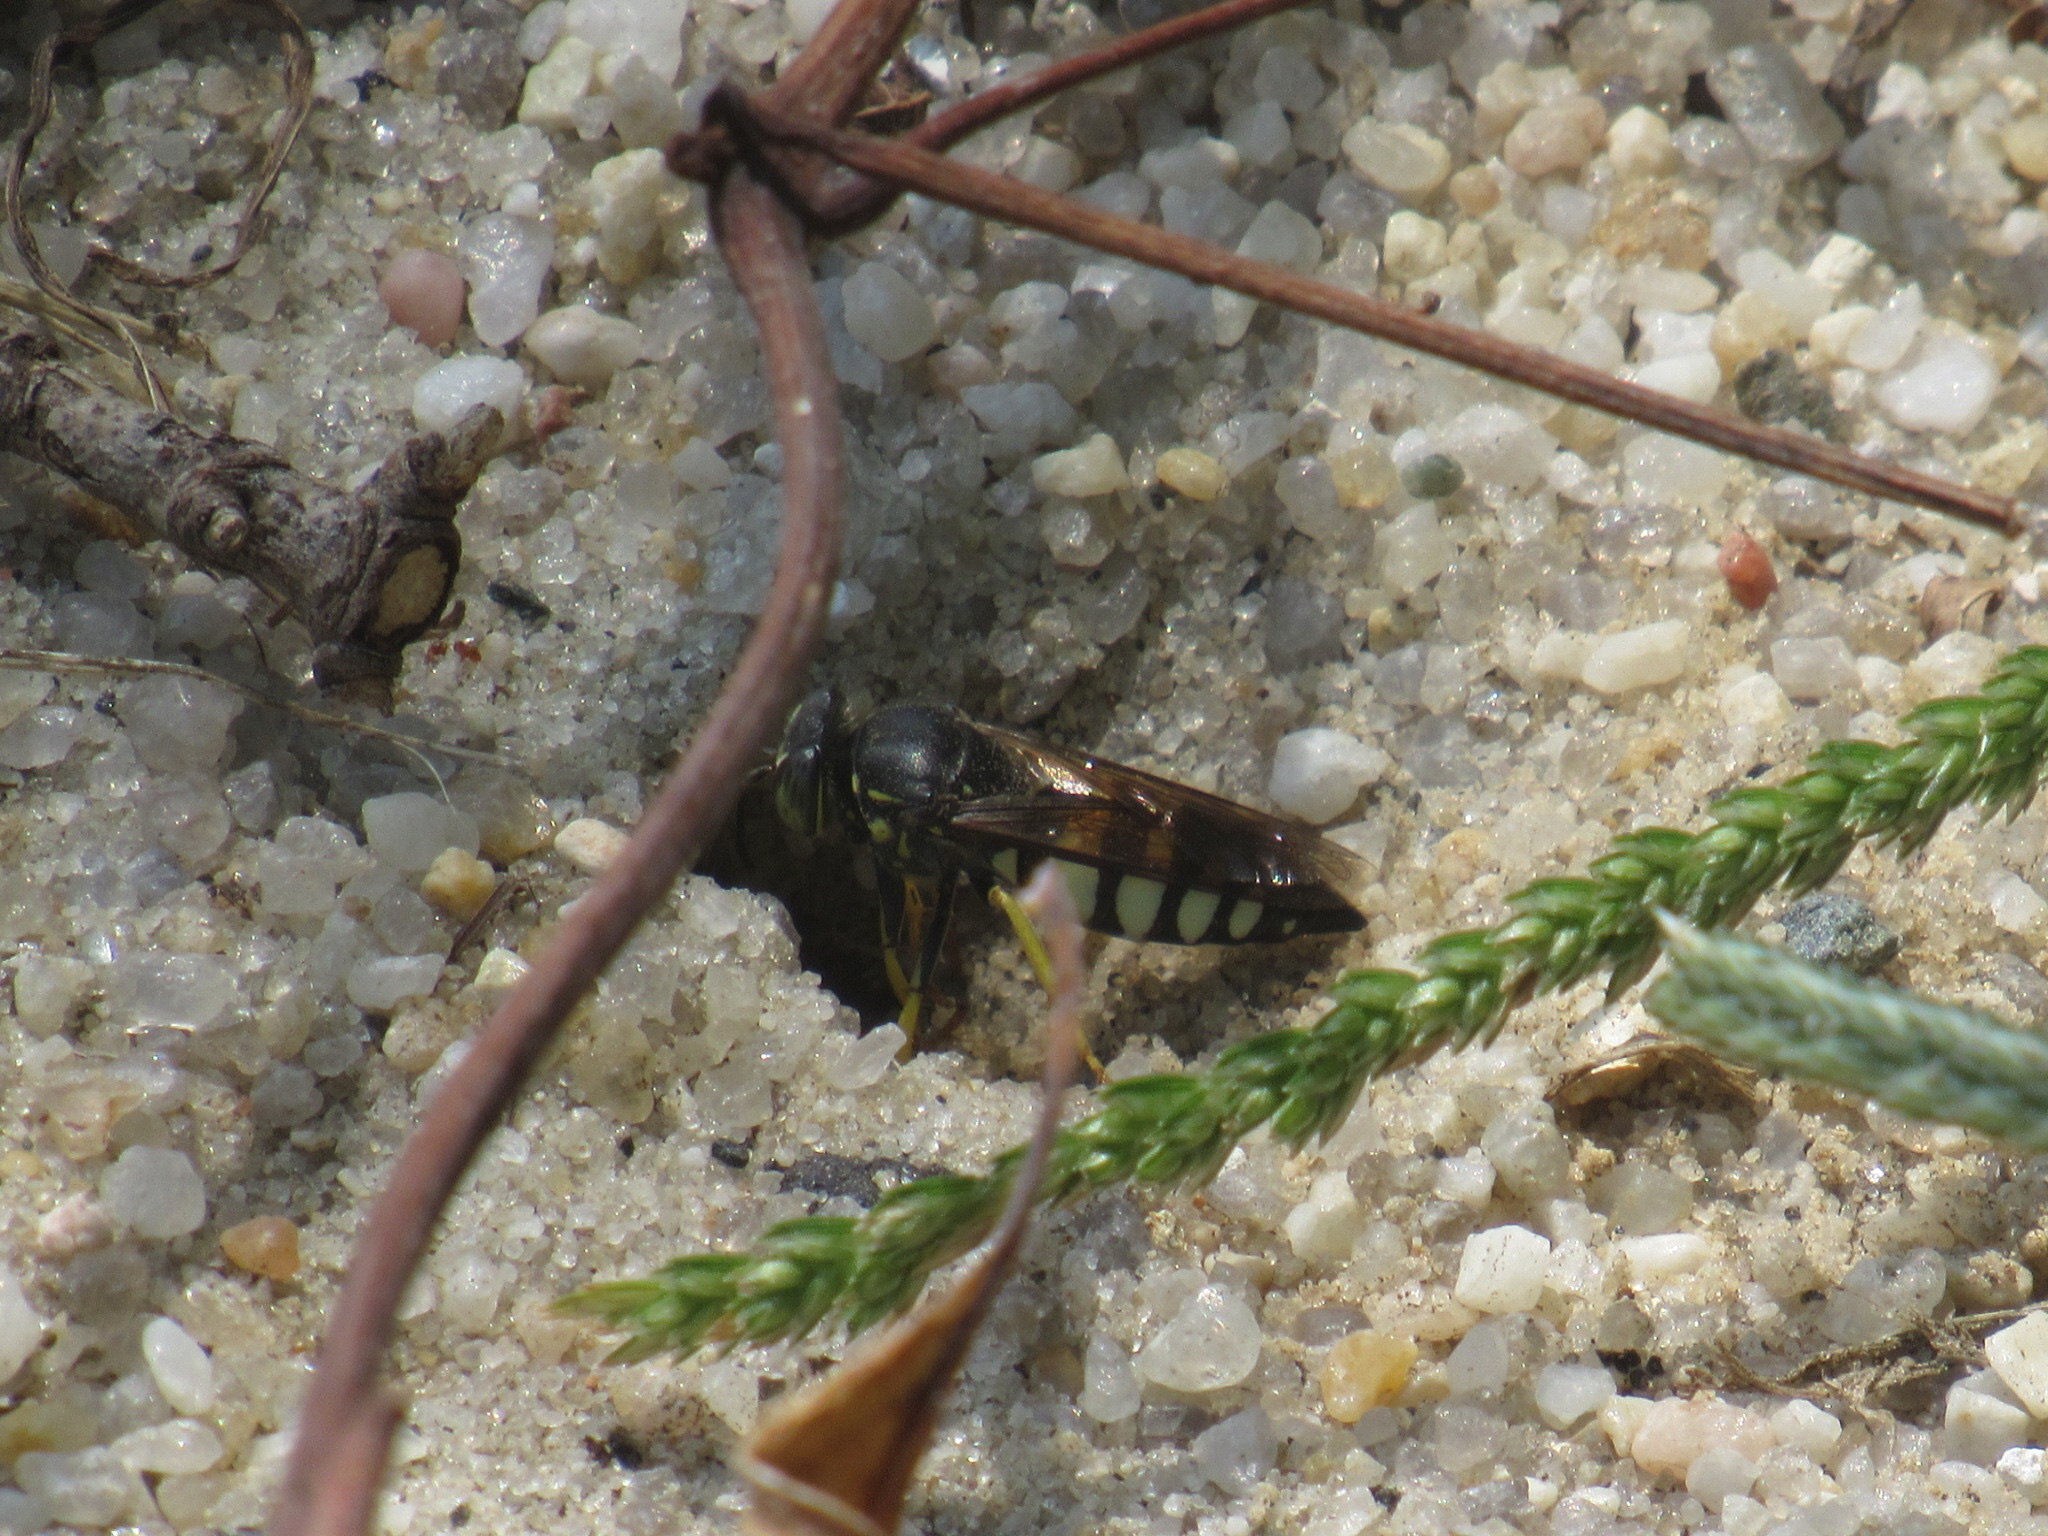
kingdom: Animalia
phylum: Arthropoda
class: Insecta
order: Hymenoptera
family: Crabronidae
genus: Bicyrtes
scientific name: Bicyrtes quadrifasciatus
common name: Four-banded stink bug hunter wasp
